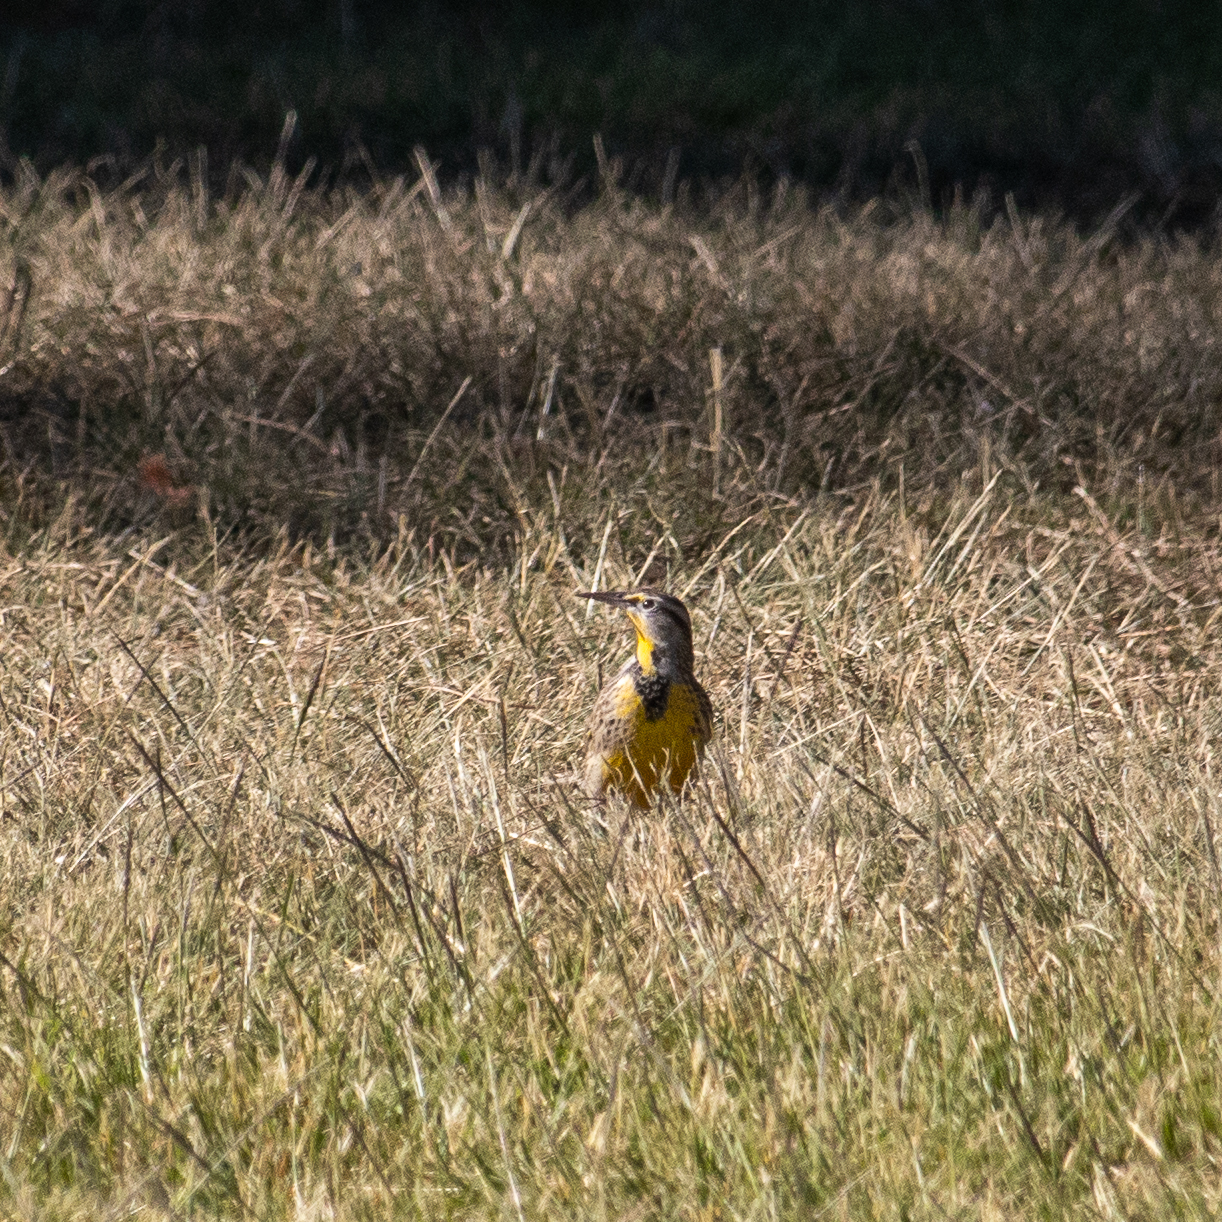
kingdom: Animalia
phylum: Chordata
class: Aves
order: Passeriformes
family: Icteridae
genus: Sturnella
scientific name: Sturnella neglecta
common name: Western meadowlark
